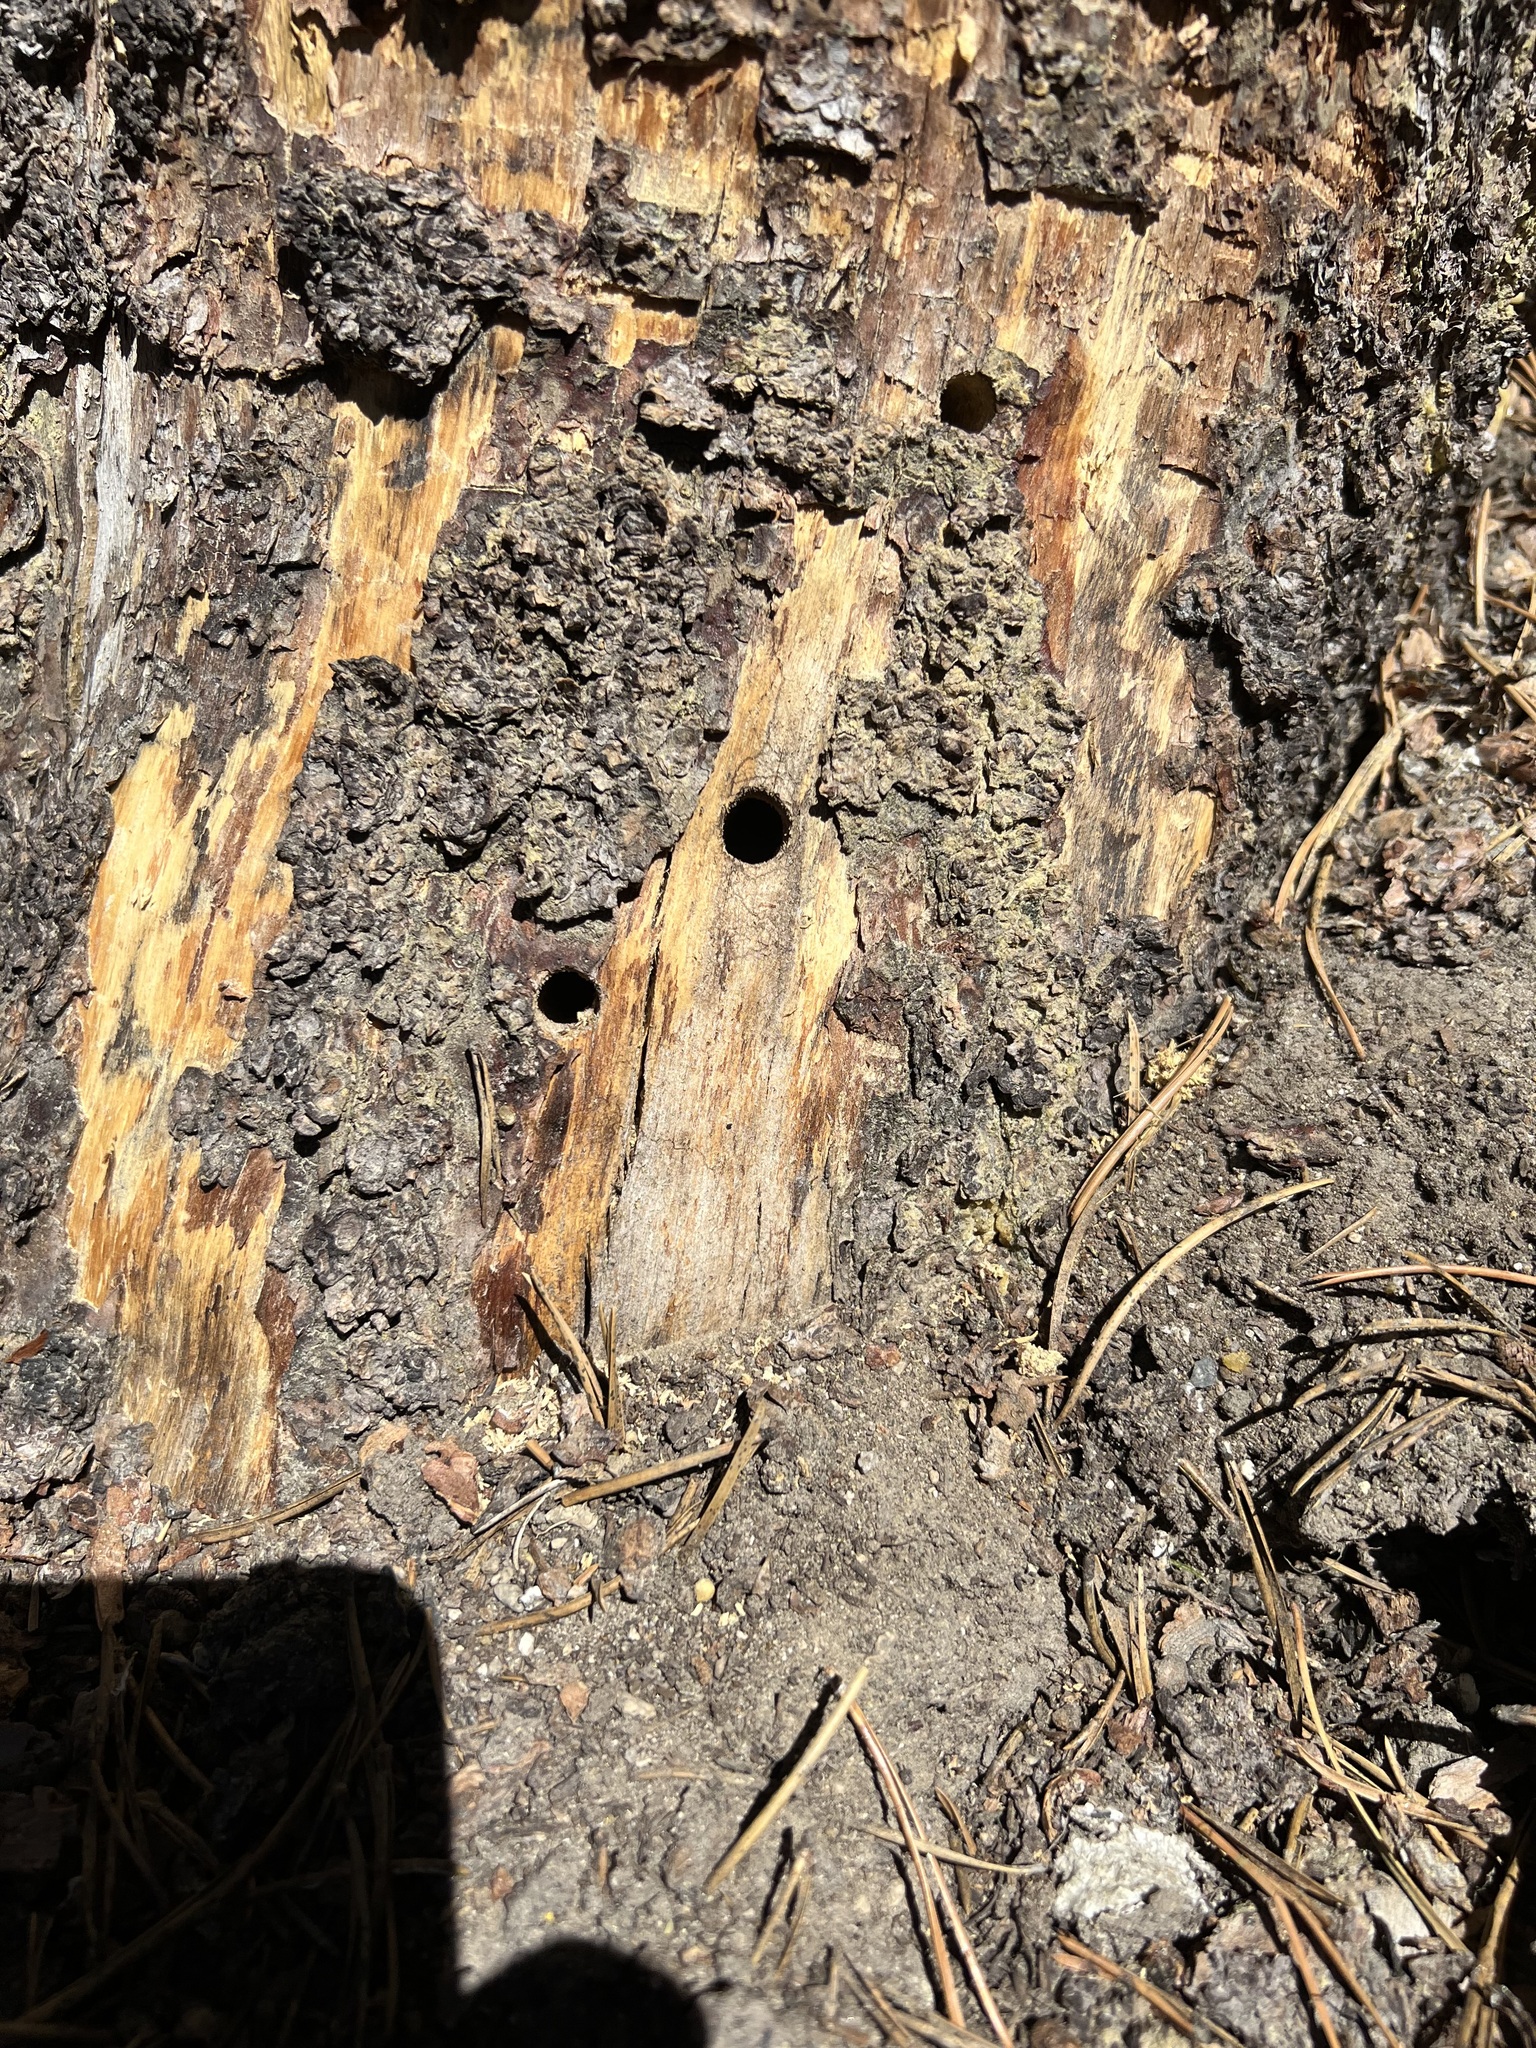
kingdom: Animalia
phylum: Arthropoda
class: Insecta
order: Coleoptera
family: Cerambycidae
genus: Ulochaetes
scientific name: Ulochaetes leoninus
